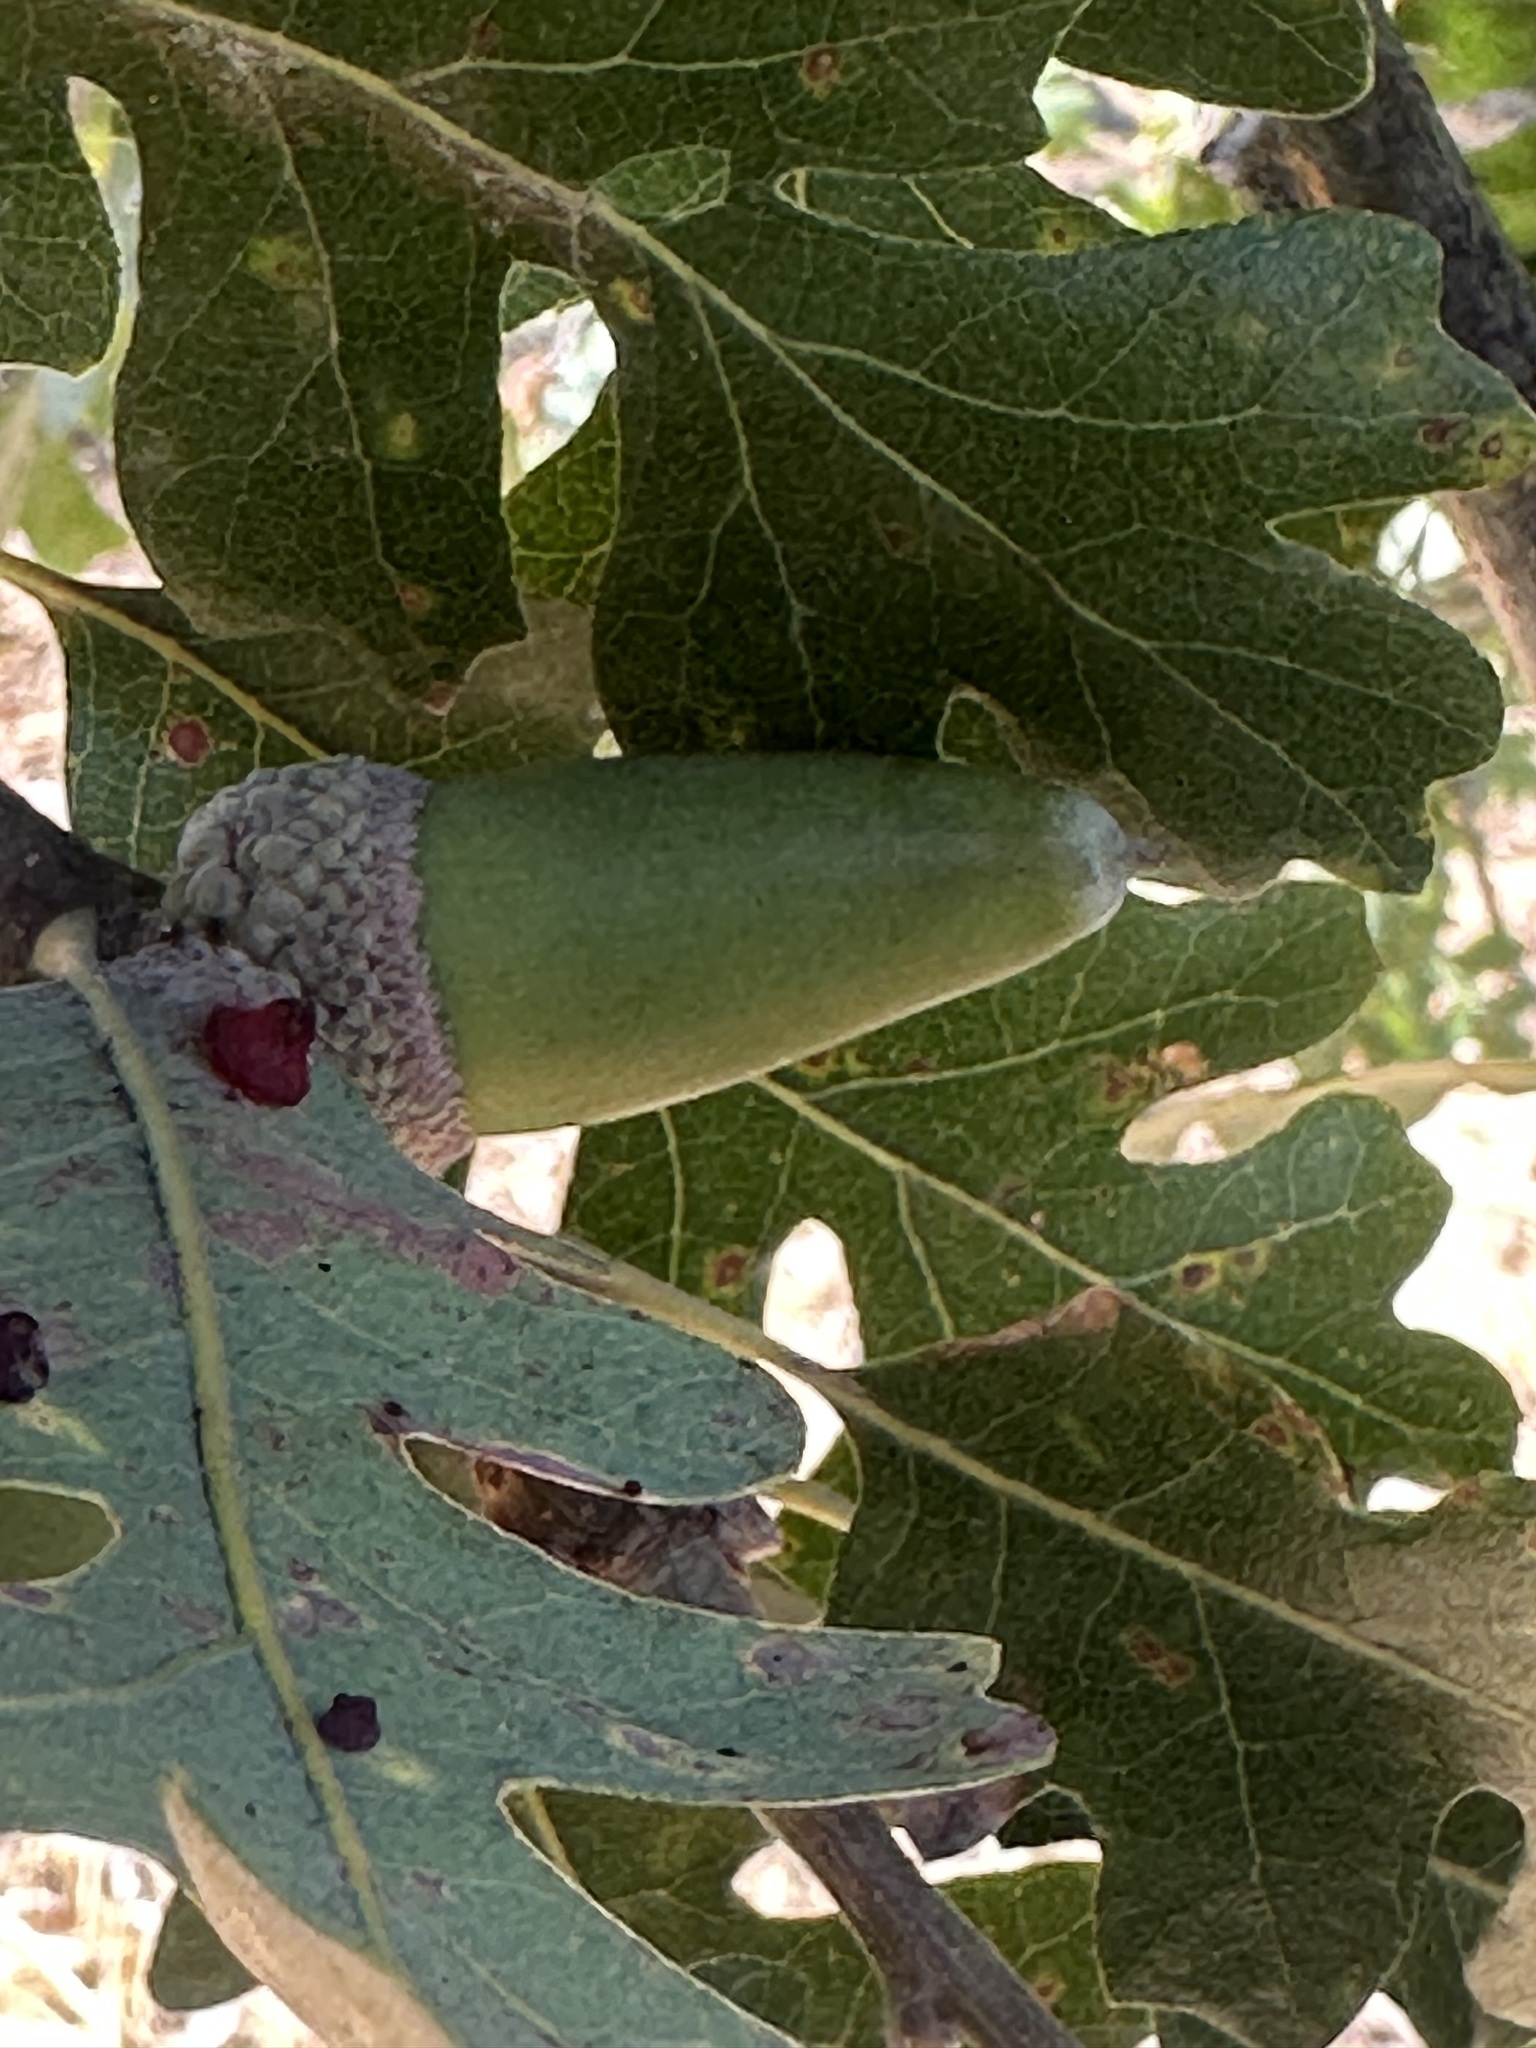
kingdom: Plantae
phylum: Tracheophyta
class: Magnoliopsida
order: Fagales
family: Fagaceae
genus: Quercus
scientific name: Quercus lobata
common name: Valley oak
